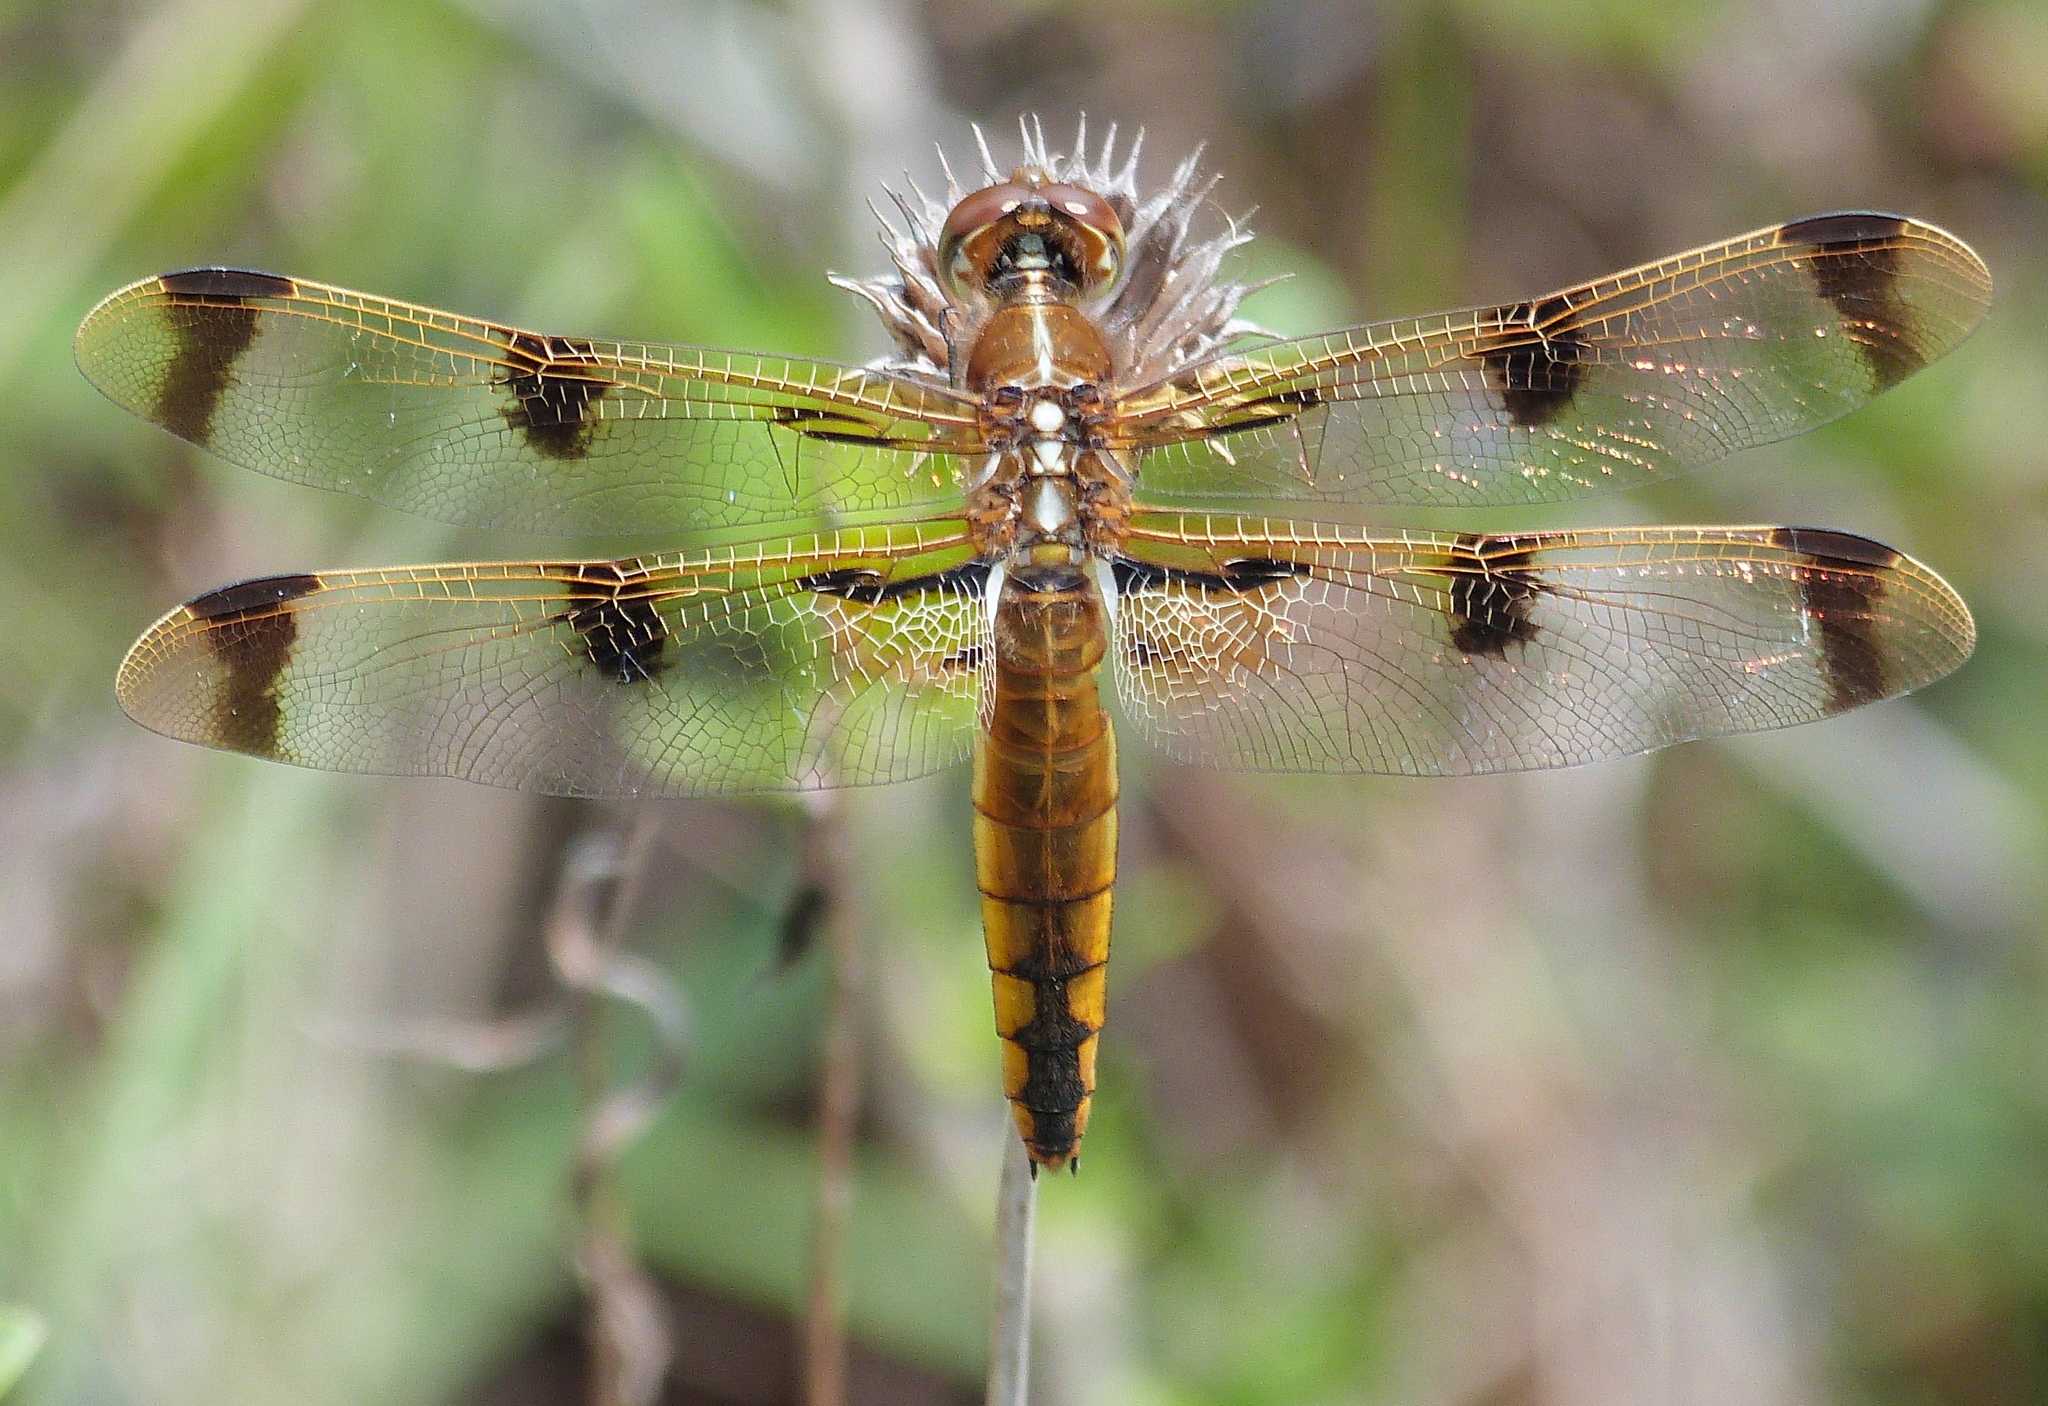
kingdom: Animalia
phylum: Arthropoda
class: Insecta
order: Odonata
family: Libellulidae
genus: Libellula
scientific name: Libellula semifasciata
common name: Painted skimmer
